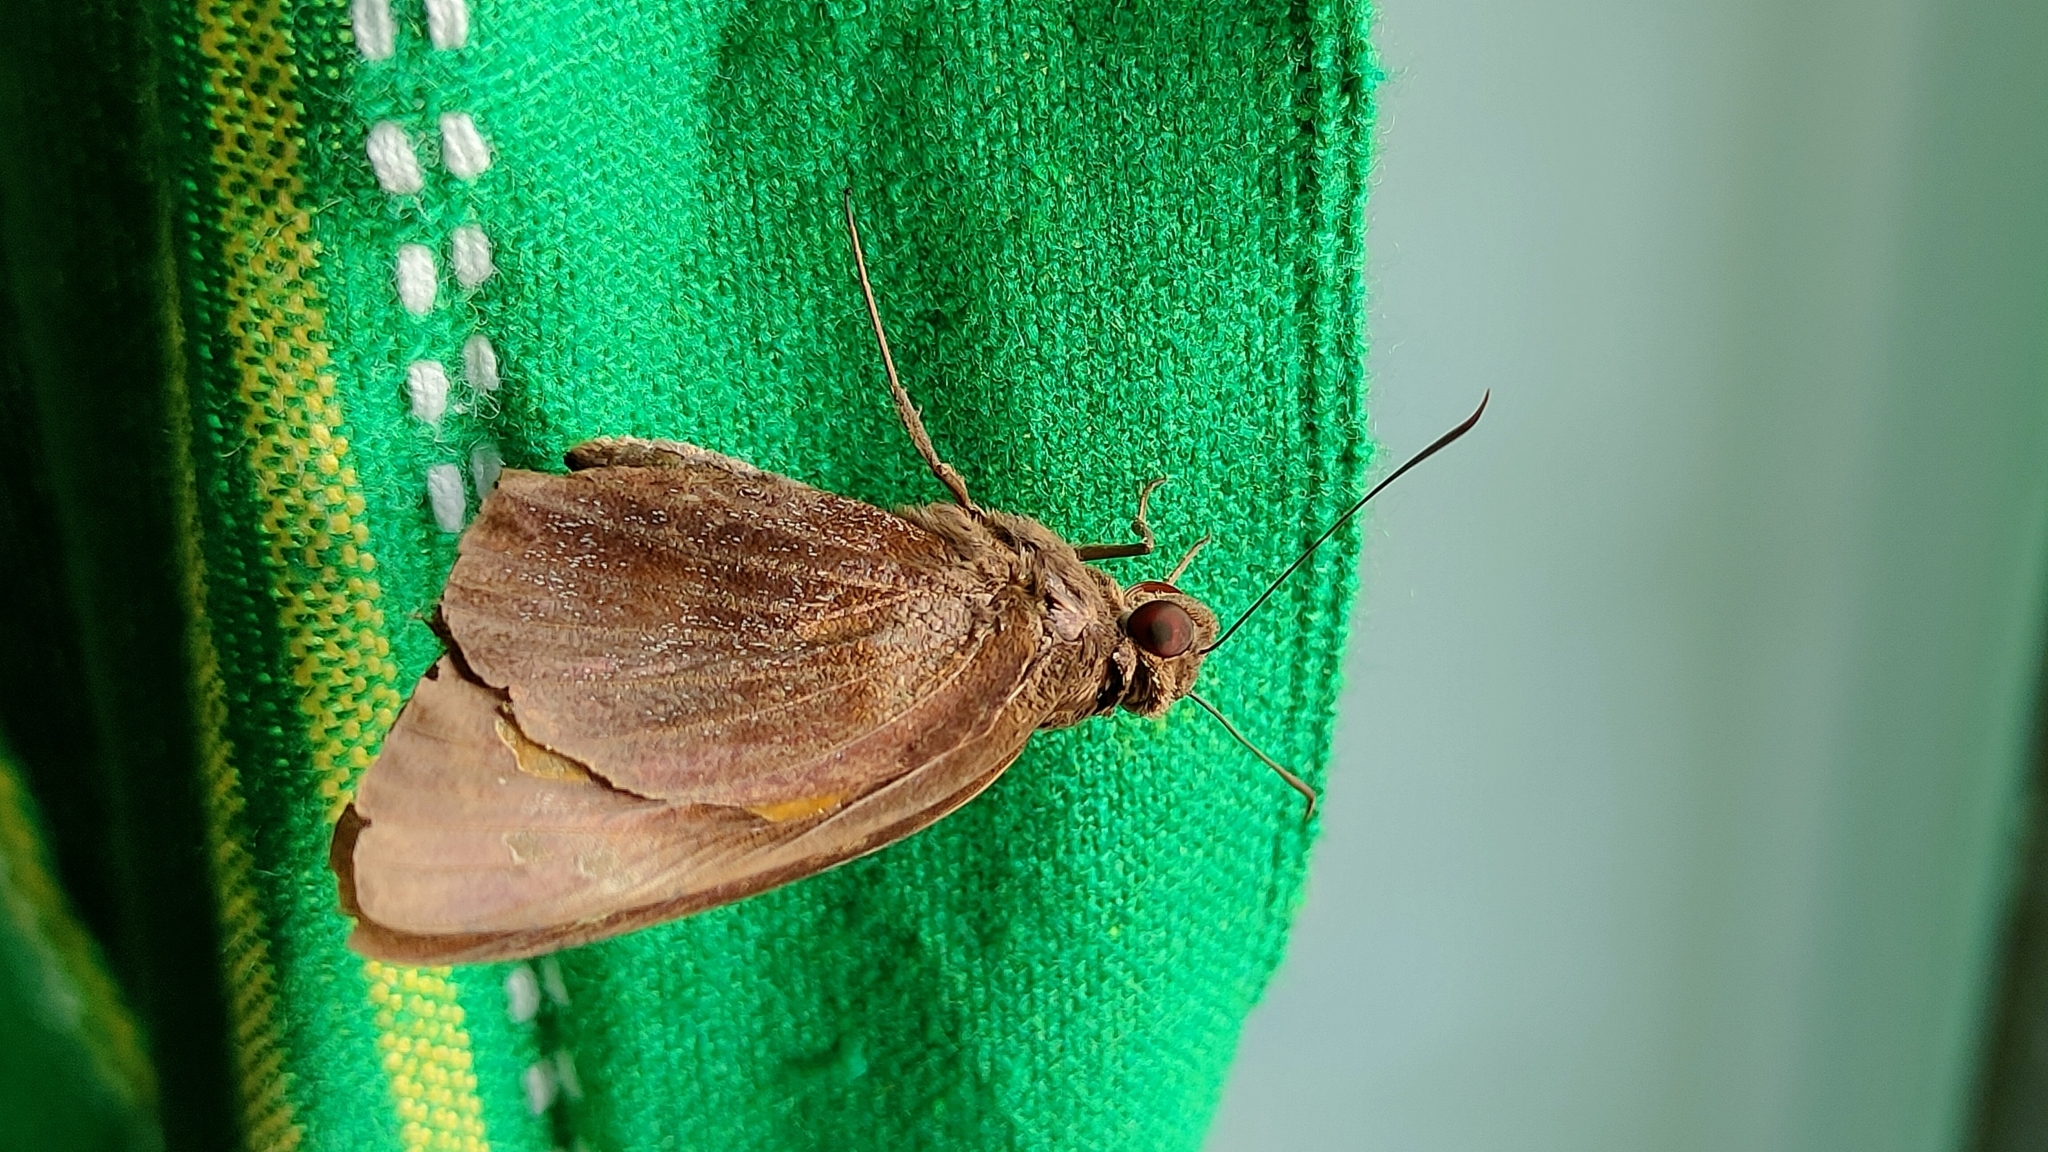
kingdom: Animalia
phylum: Arthropoda
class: Insecta
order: Lepidoptera
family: Hesperiidae
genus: Erionota
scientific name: Erionota torus
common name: Rounded palm-redeye
